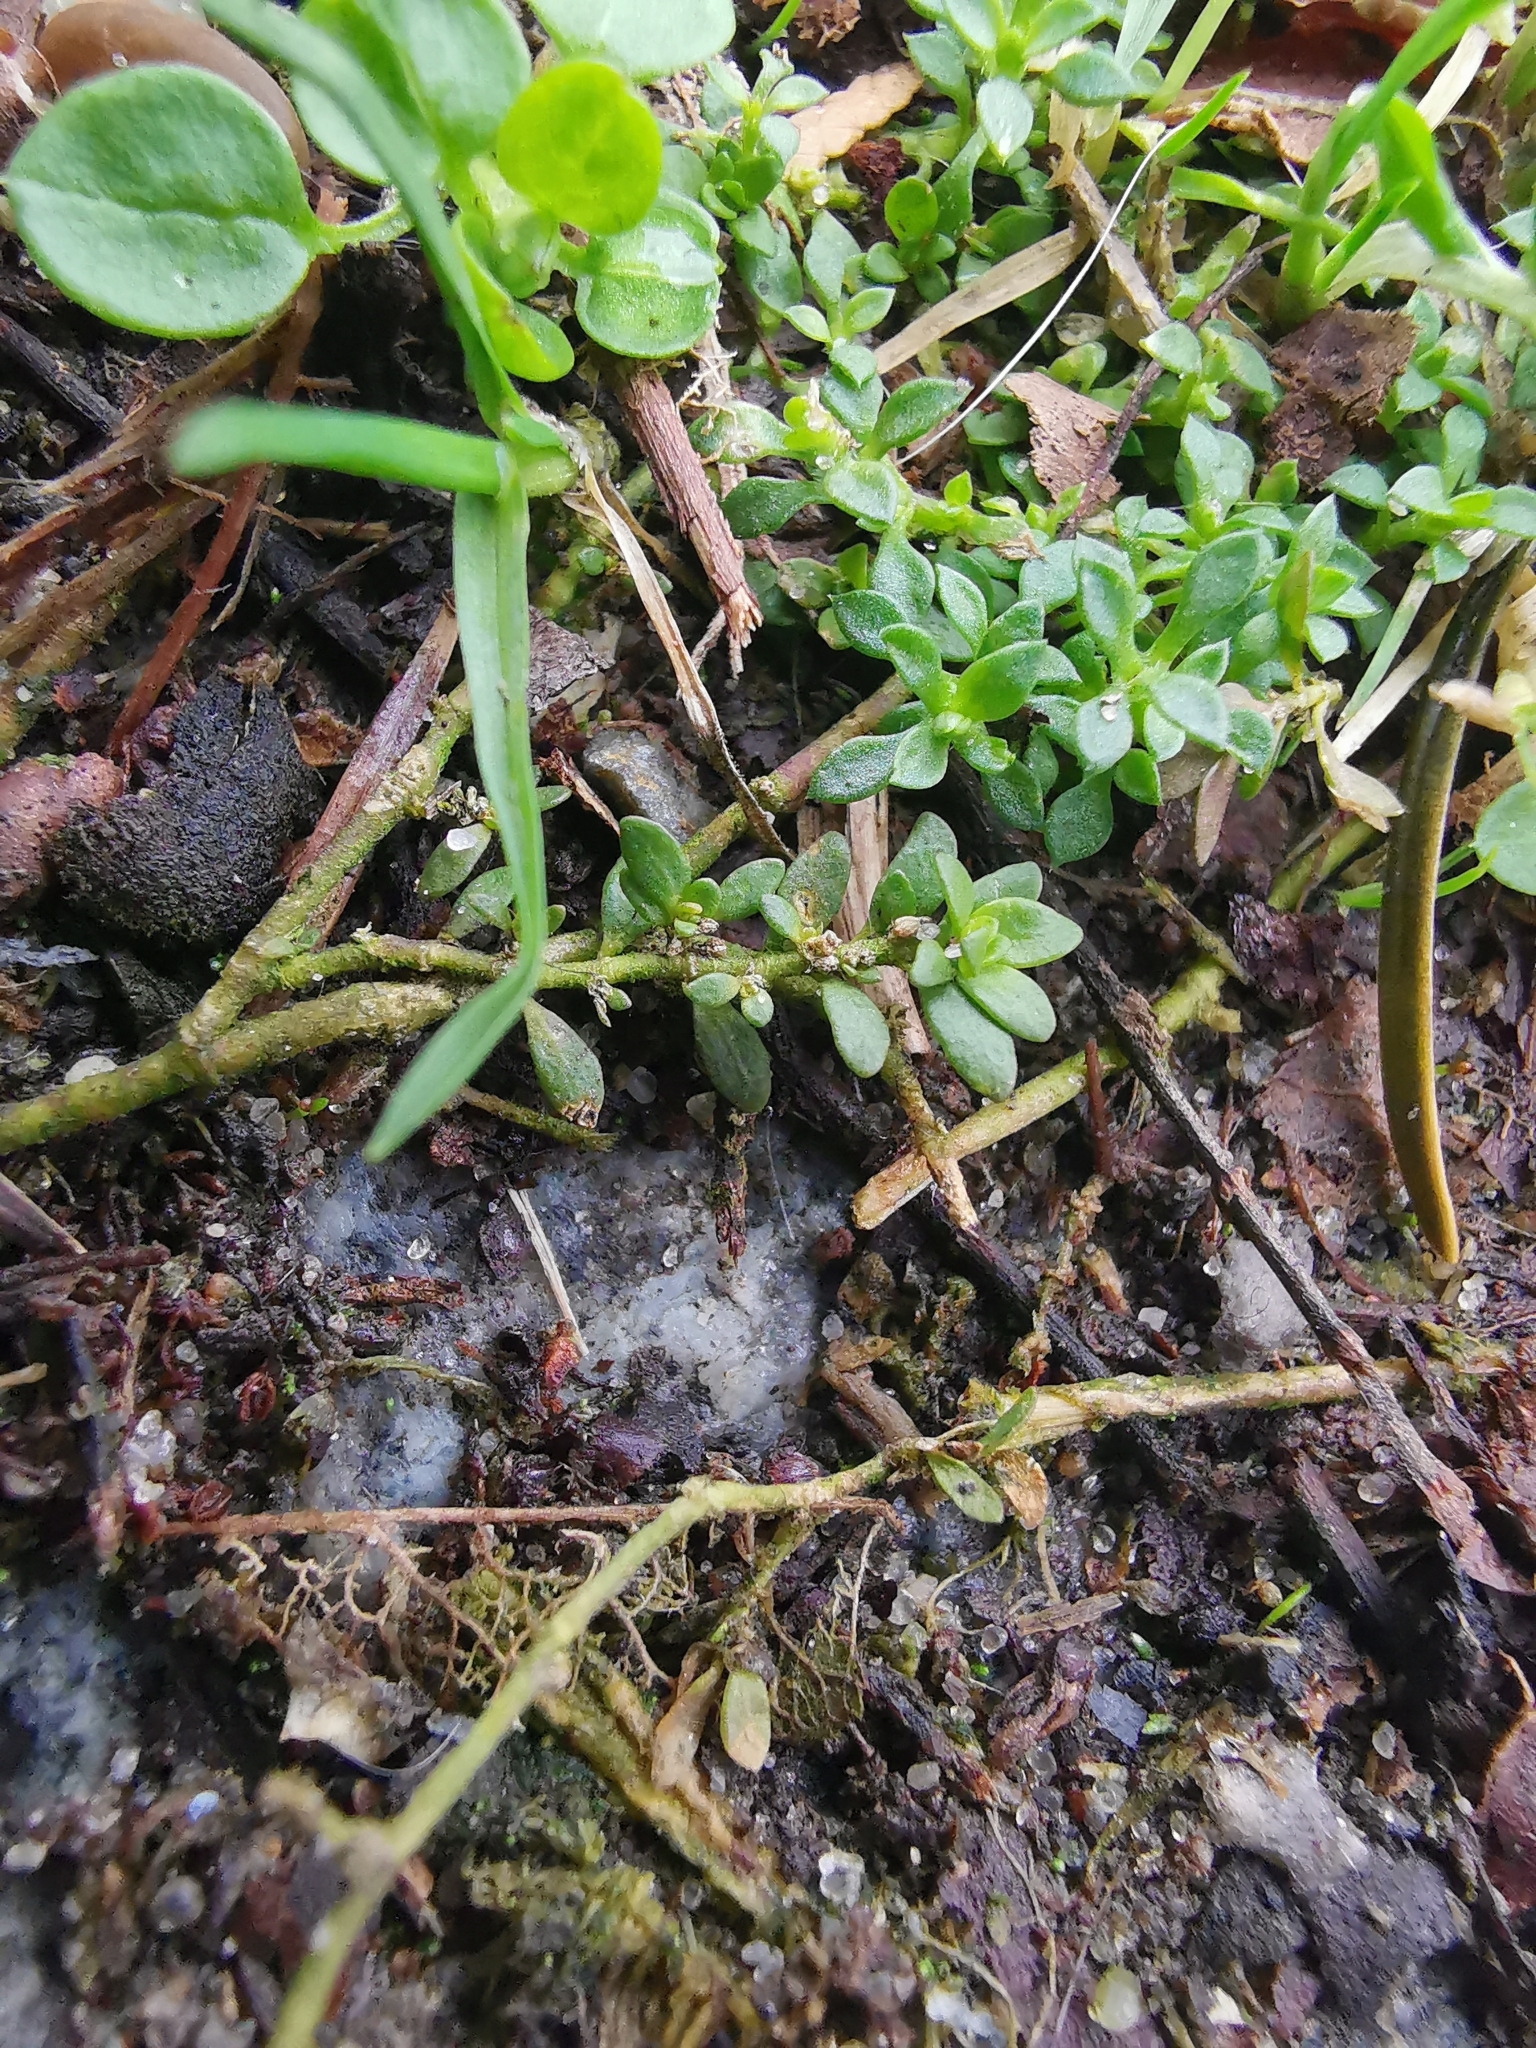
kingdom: Plantae
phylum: Tracheophyta
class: Magnoliopsida
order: Caryophyllales
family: Caryophyllaceae
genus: Herniaria
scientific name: Herniaria glabra
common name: Smooth rupturewort
